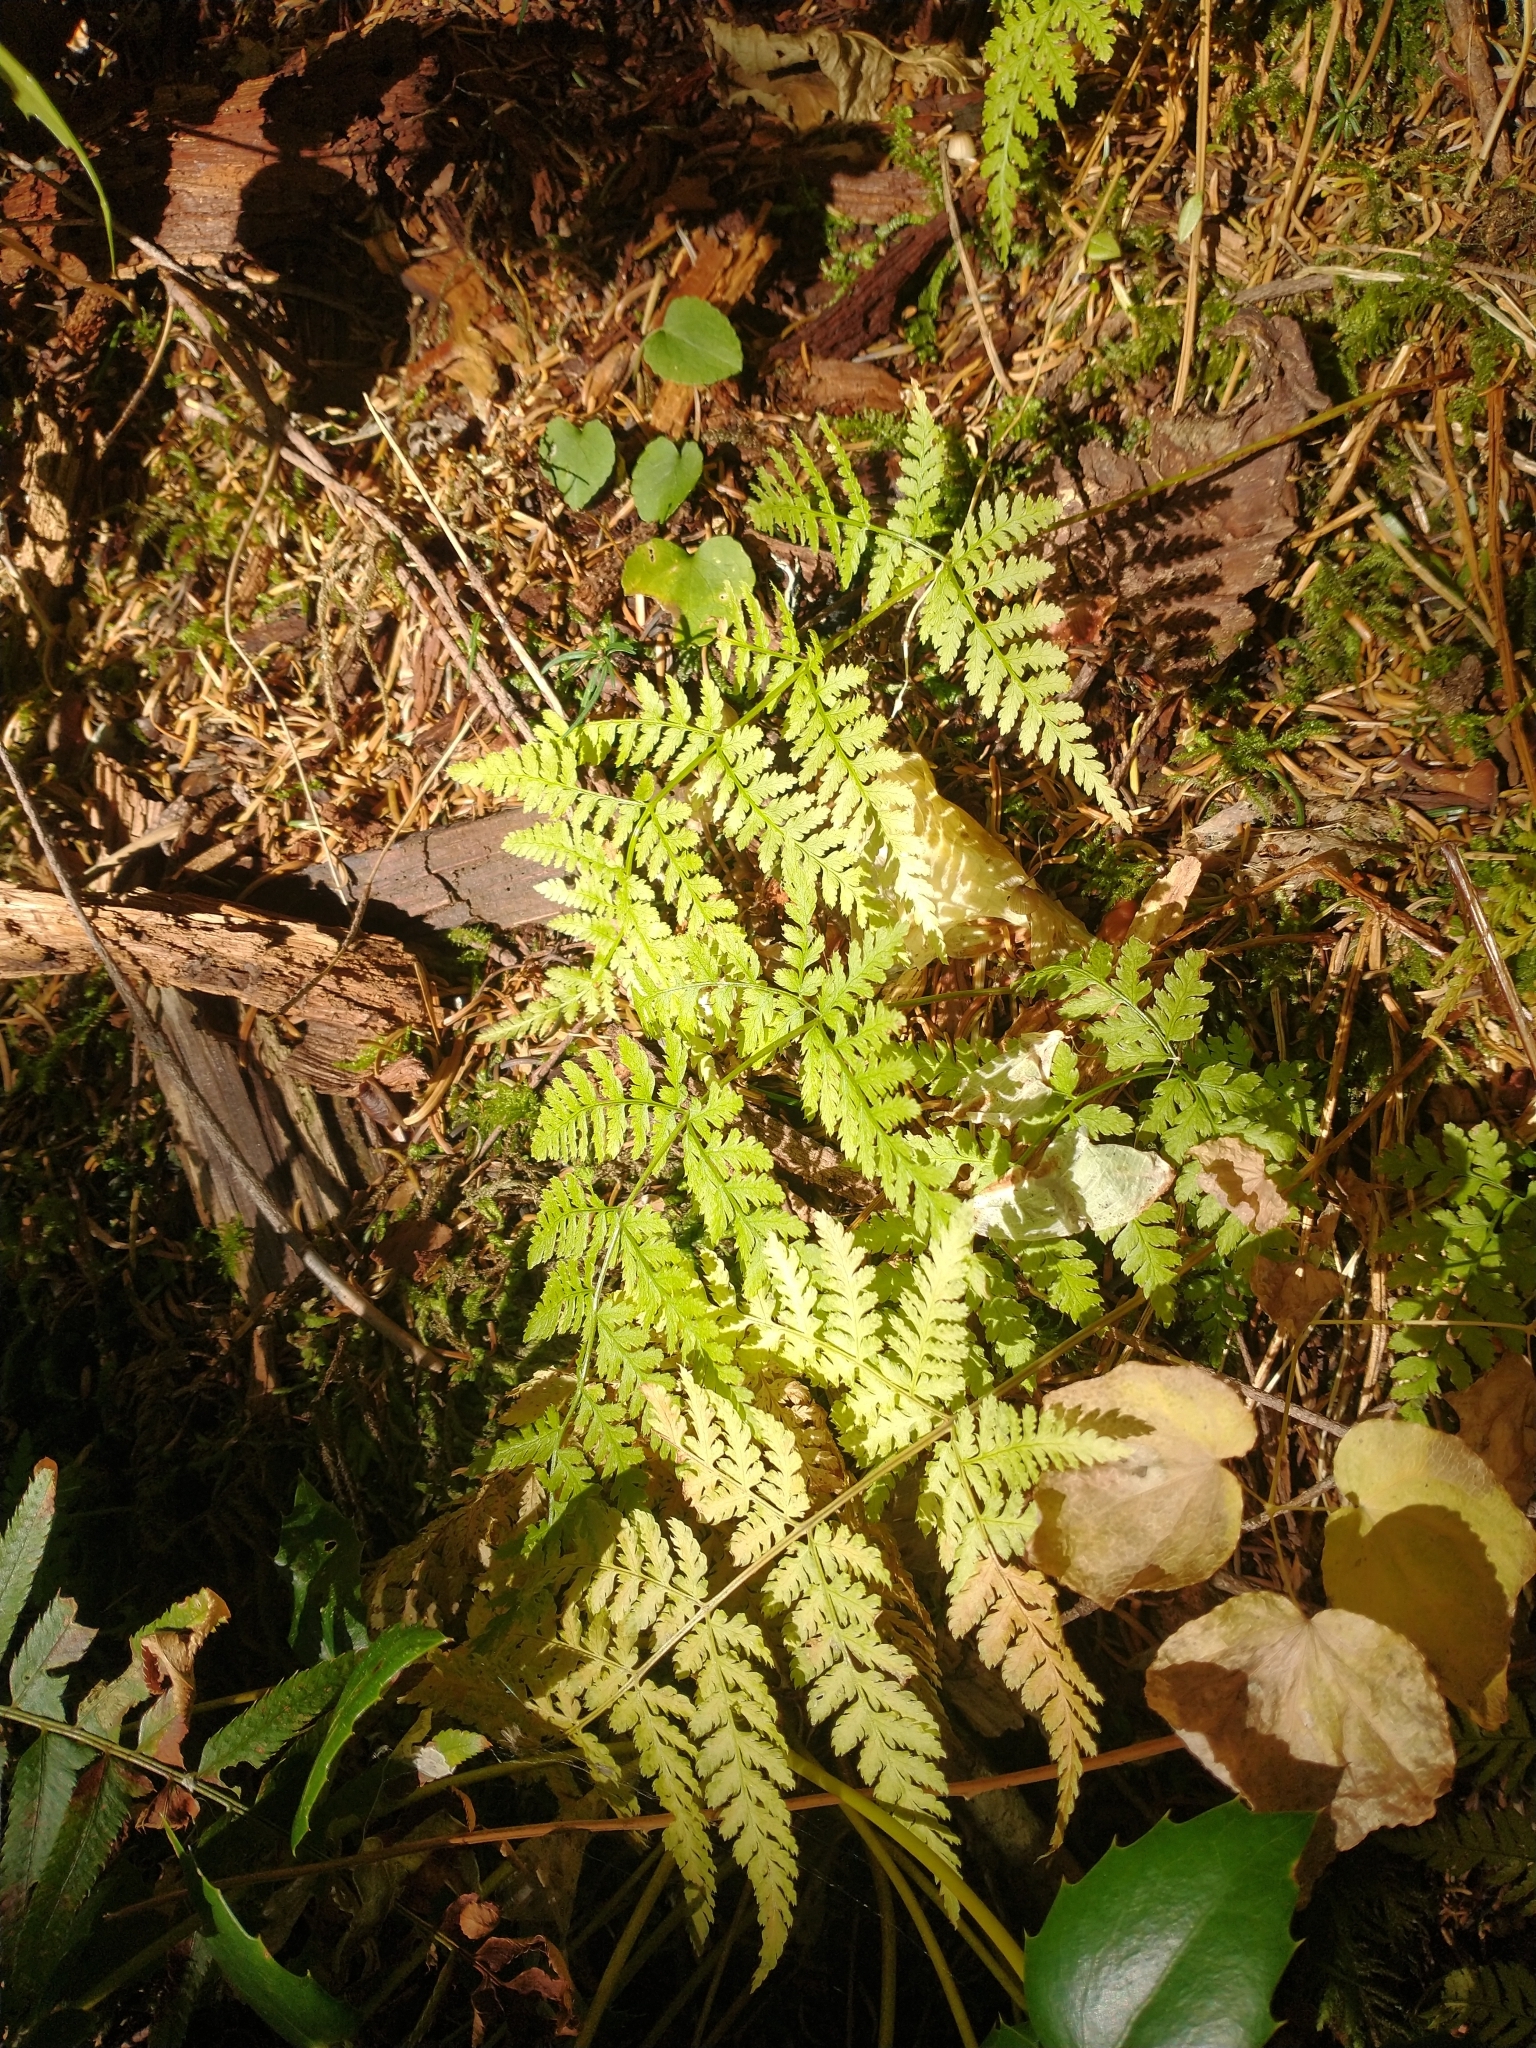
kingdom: Plantae
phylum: Tracheophyta
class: Polypodiopsida
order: Polypodiales
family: Dryopteridaceae
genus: Dryopteris
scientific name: Dryopteris expansa
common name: Northern buckler fern
